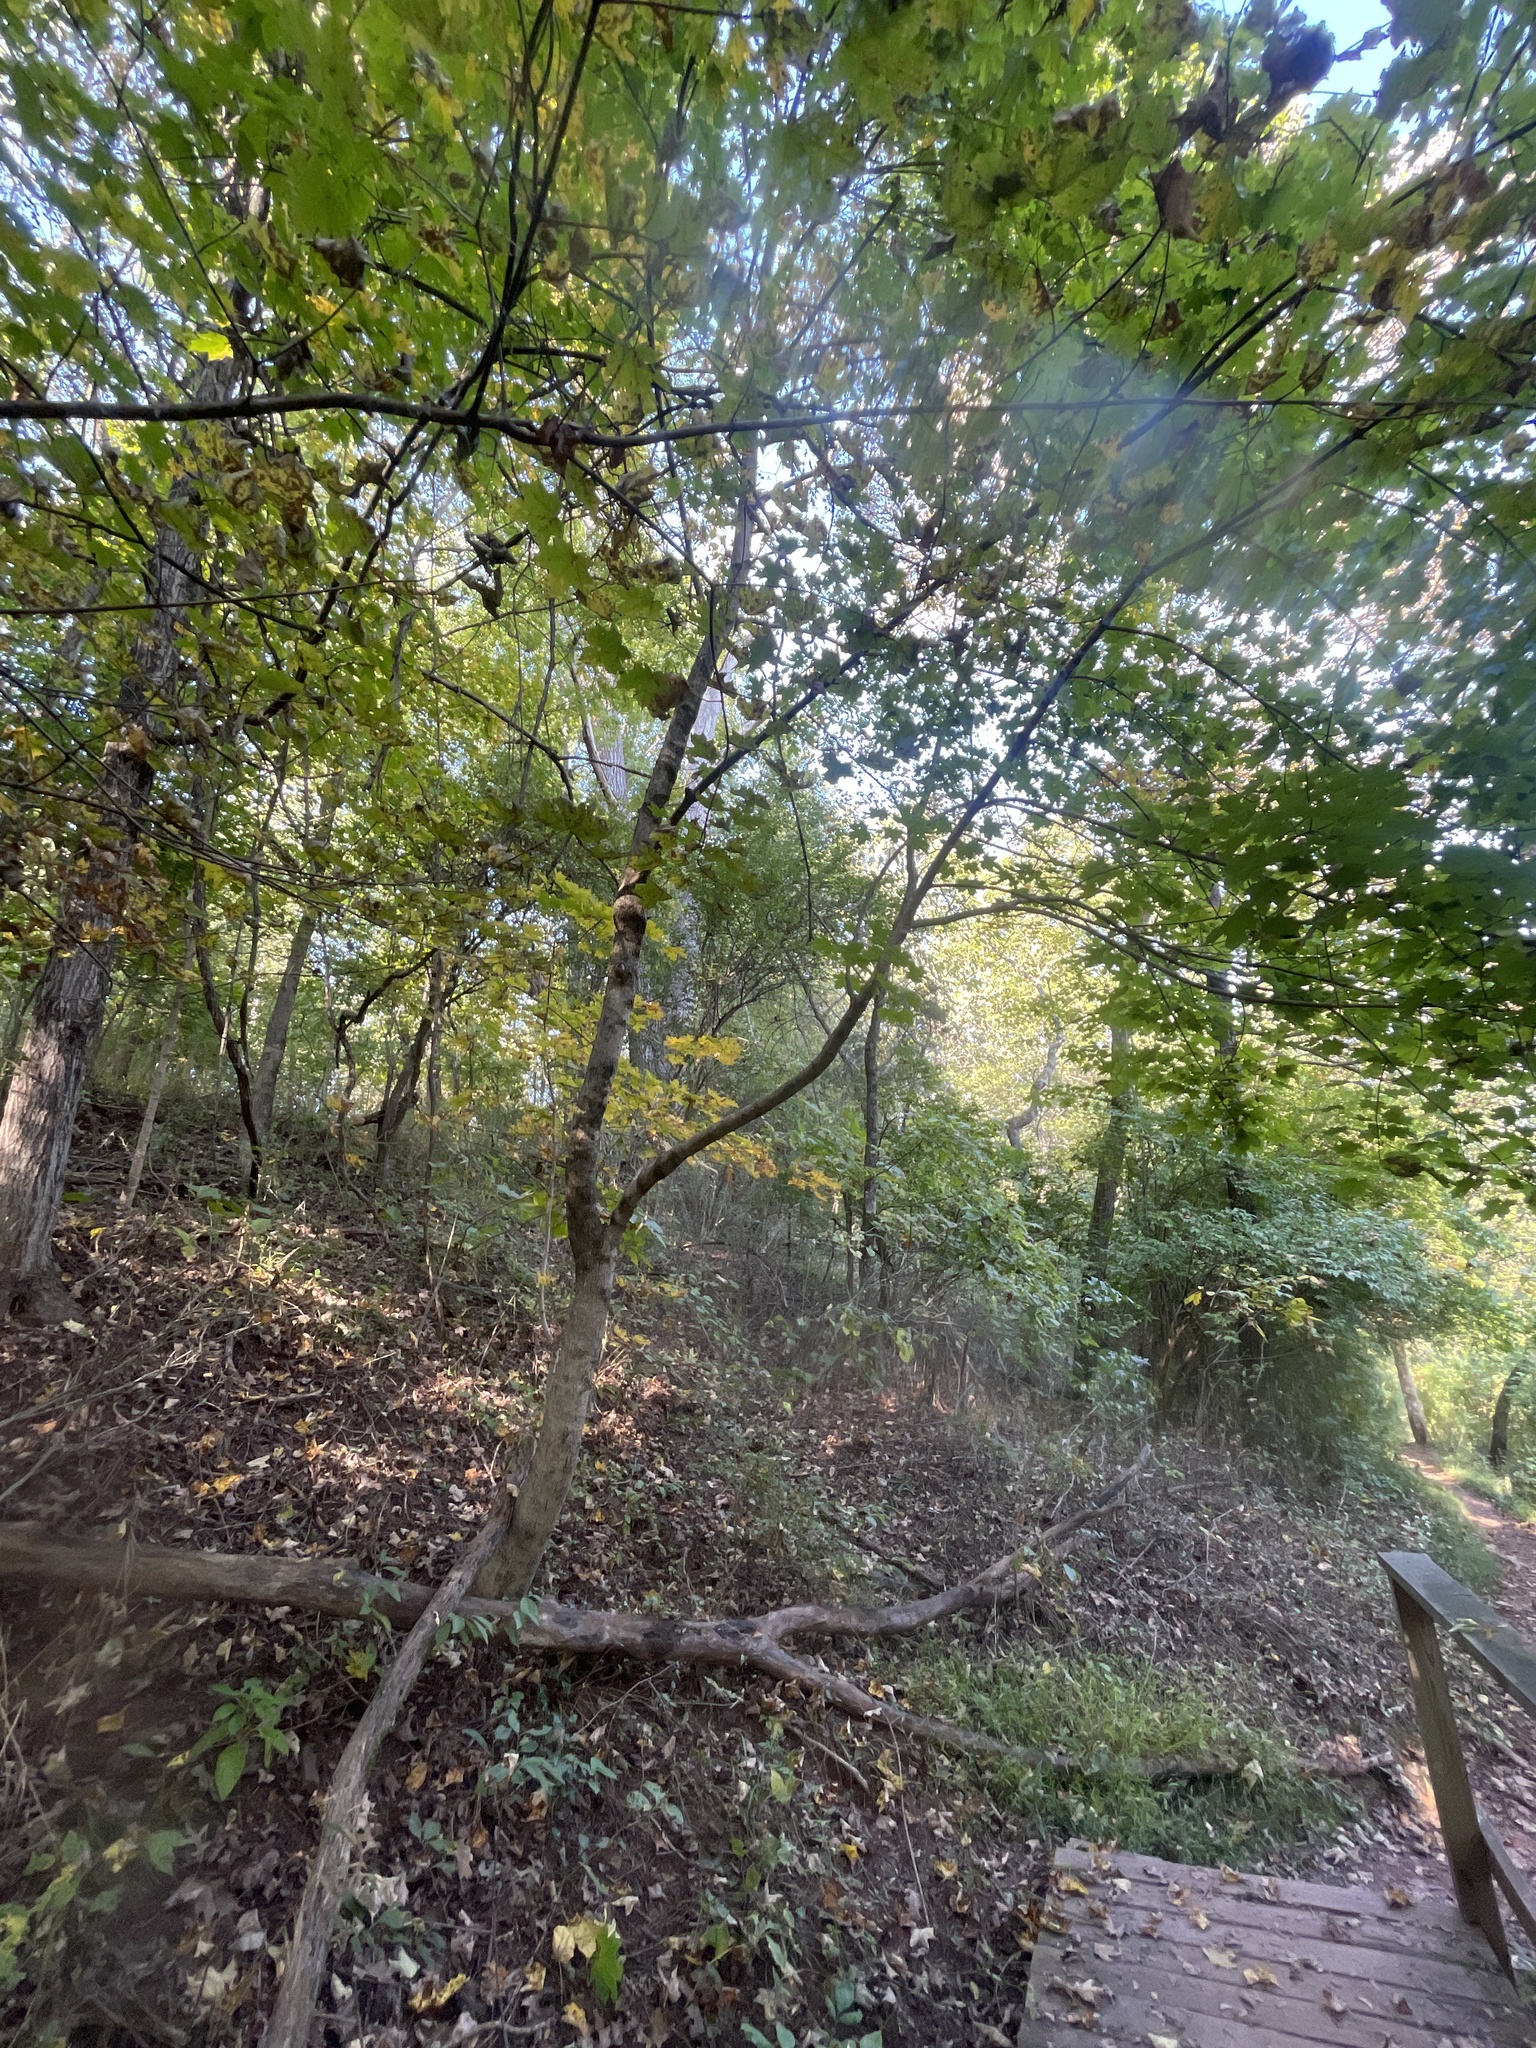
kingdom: Plantae
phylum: Tracheophyta
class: Magnoliopsida
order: Sapindales
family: Sapindaceae
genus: Acer
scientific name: Acer platanoides
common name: Norway maple
